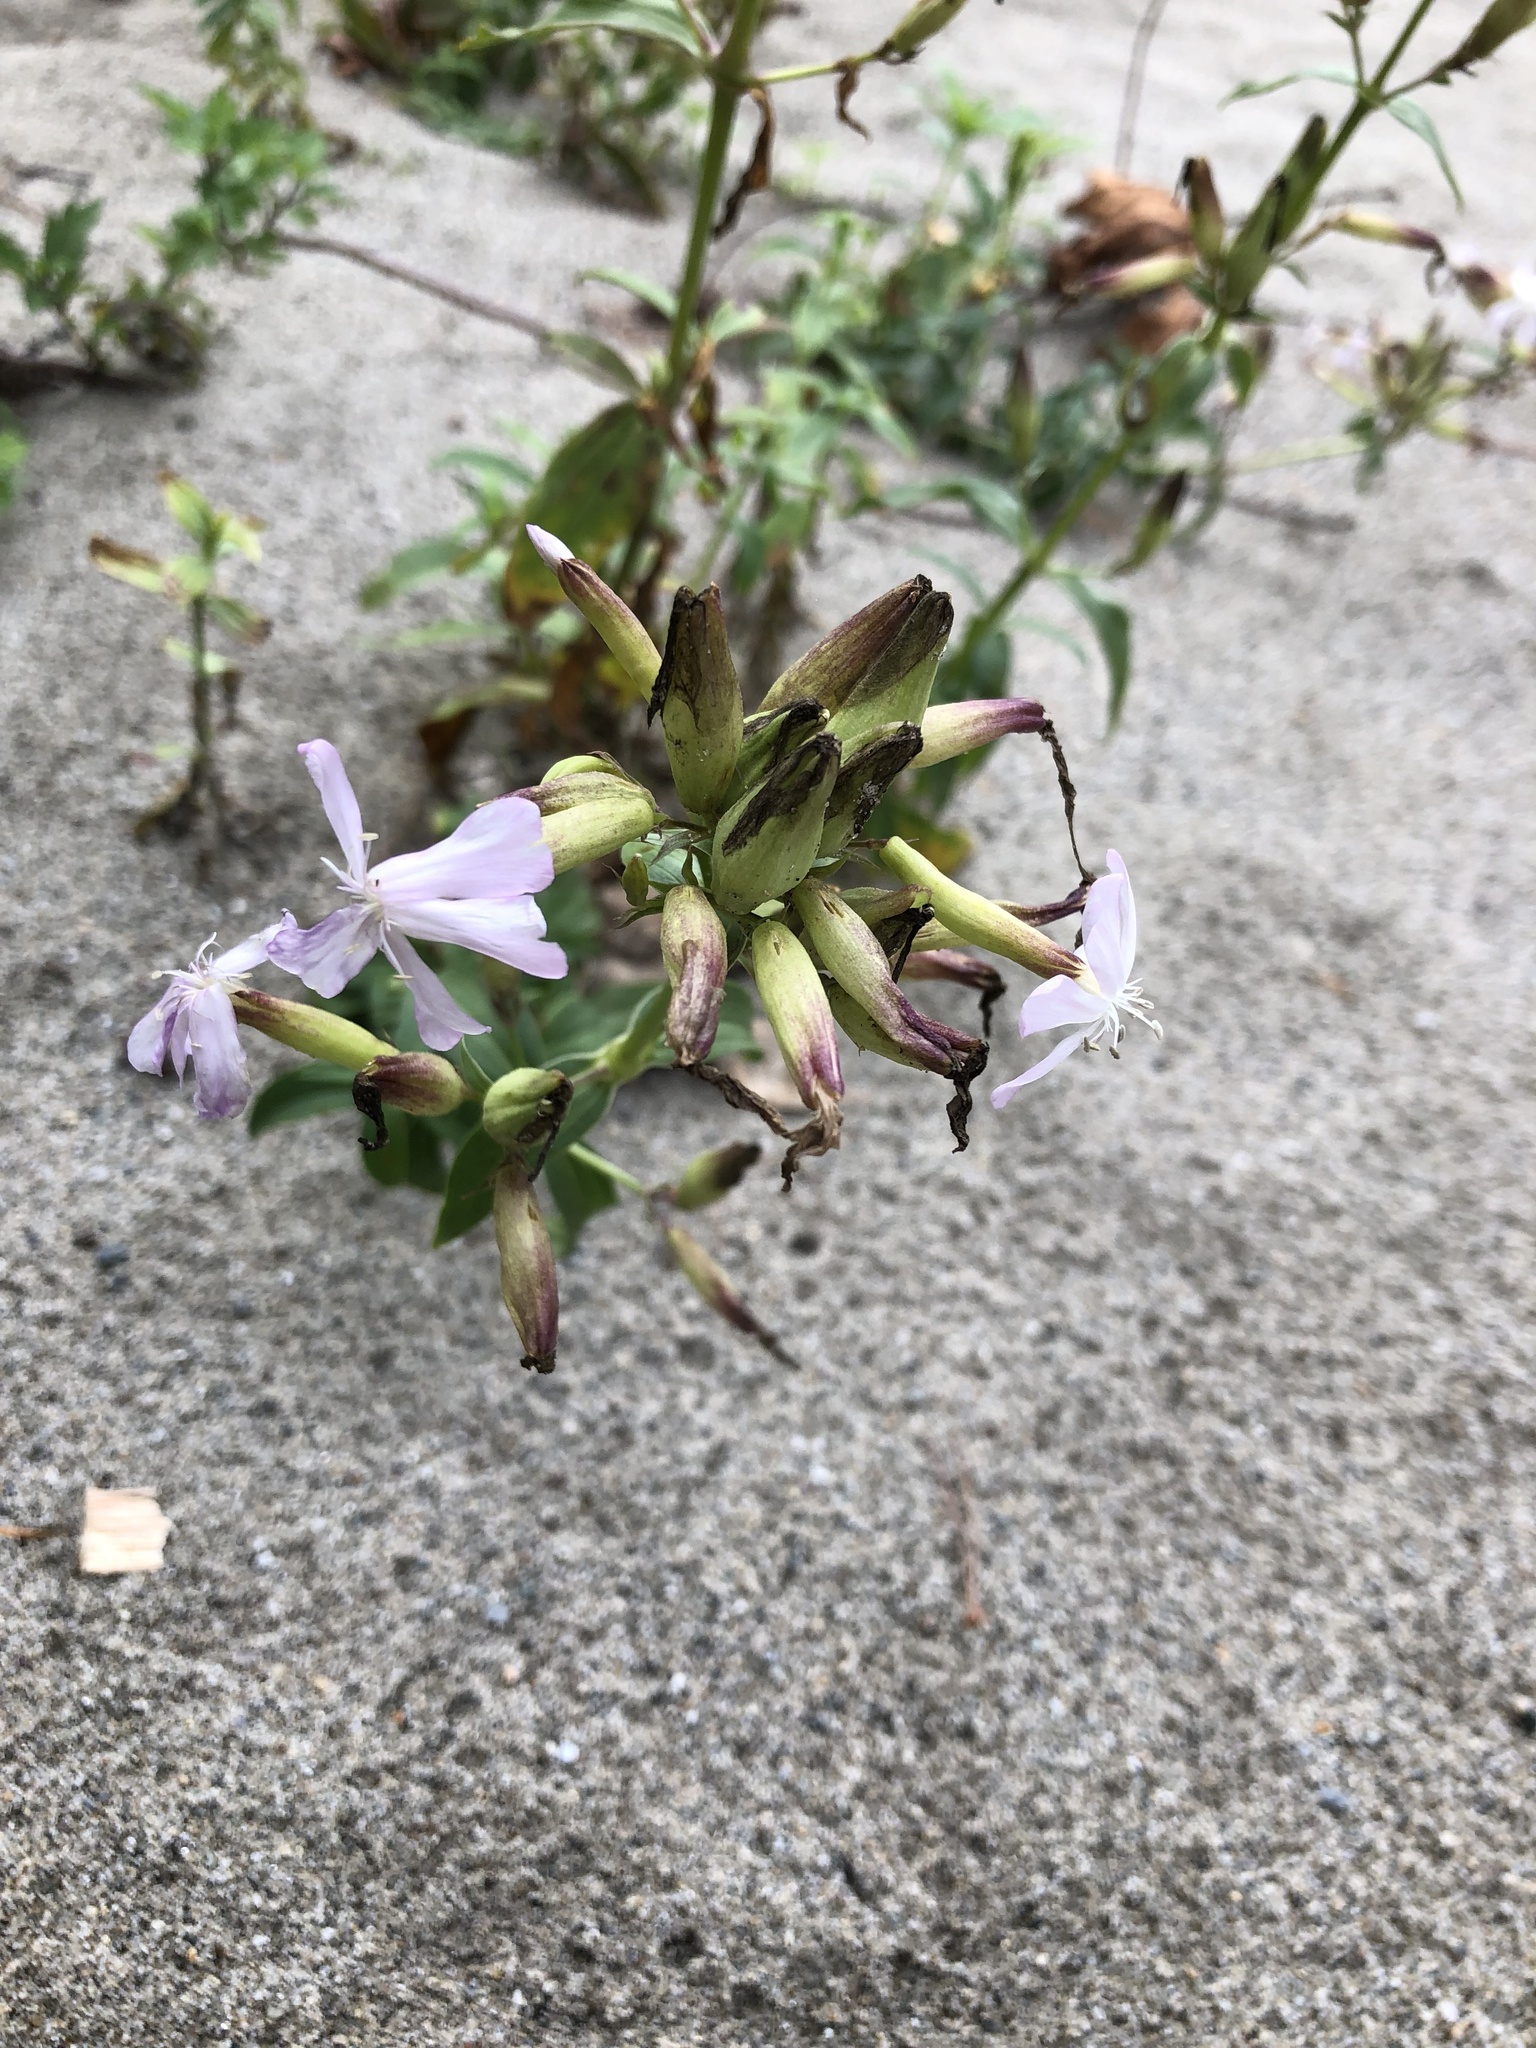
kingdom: Plantae
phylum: Tracheophyta
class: Magnoliopsida
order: Caryophyllales
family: Caryophyllaceae
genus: Saponaria
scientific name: Saponaria officinalis
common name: Soapwort
